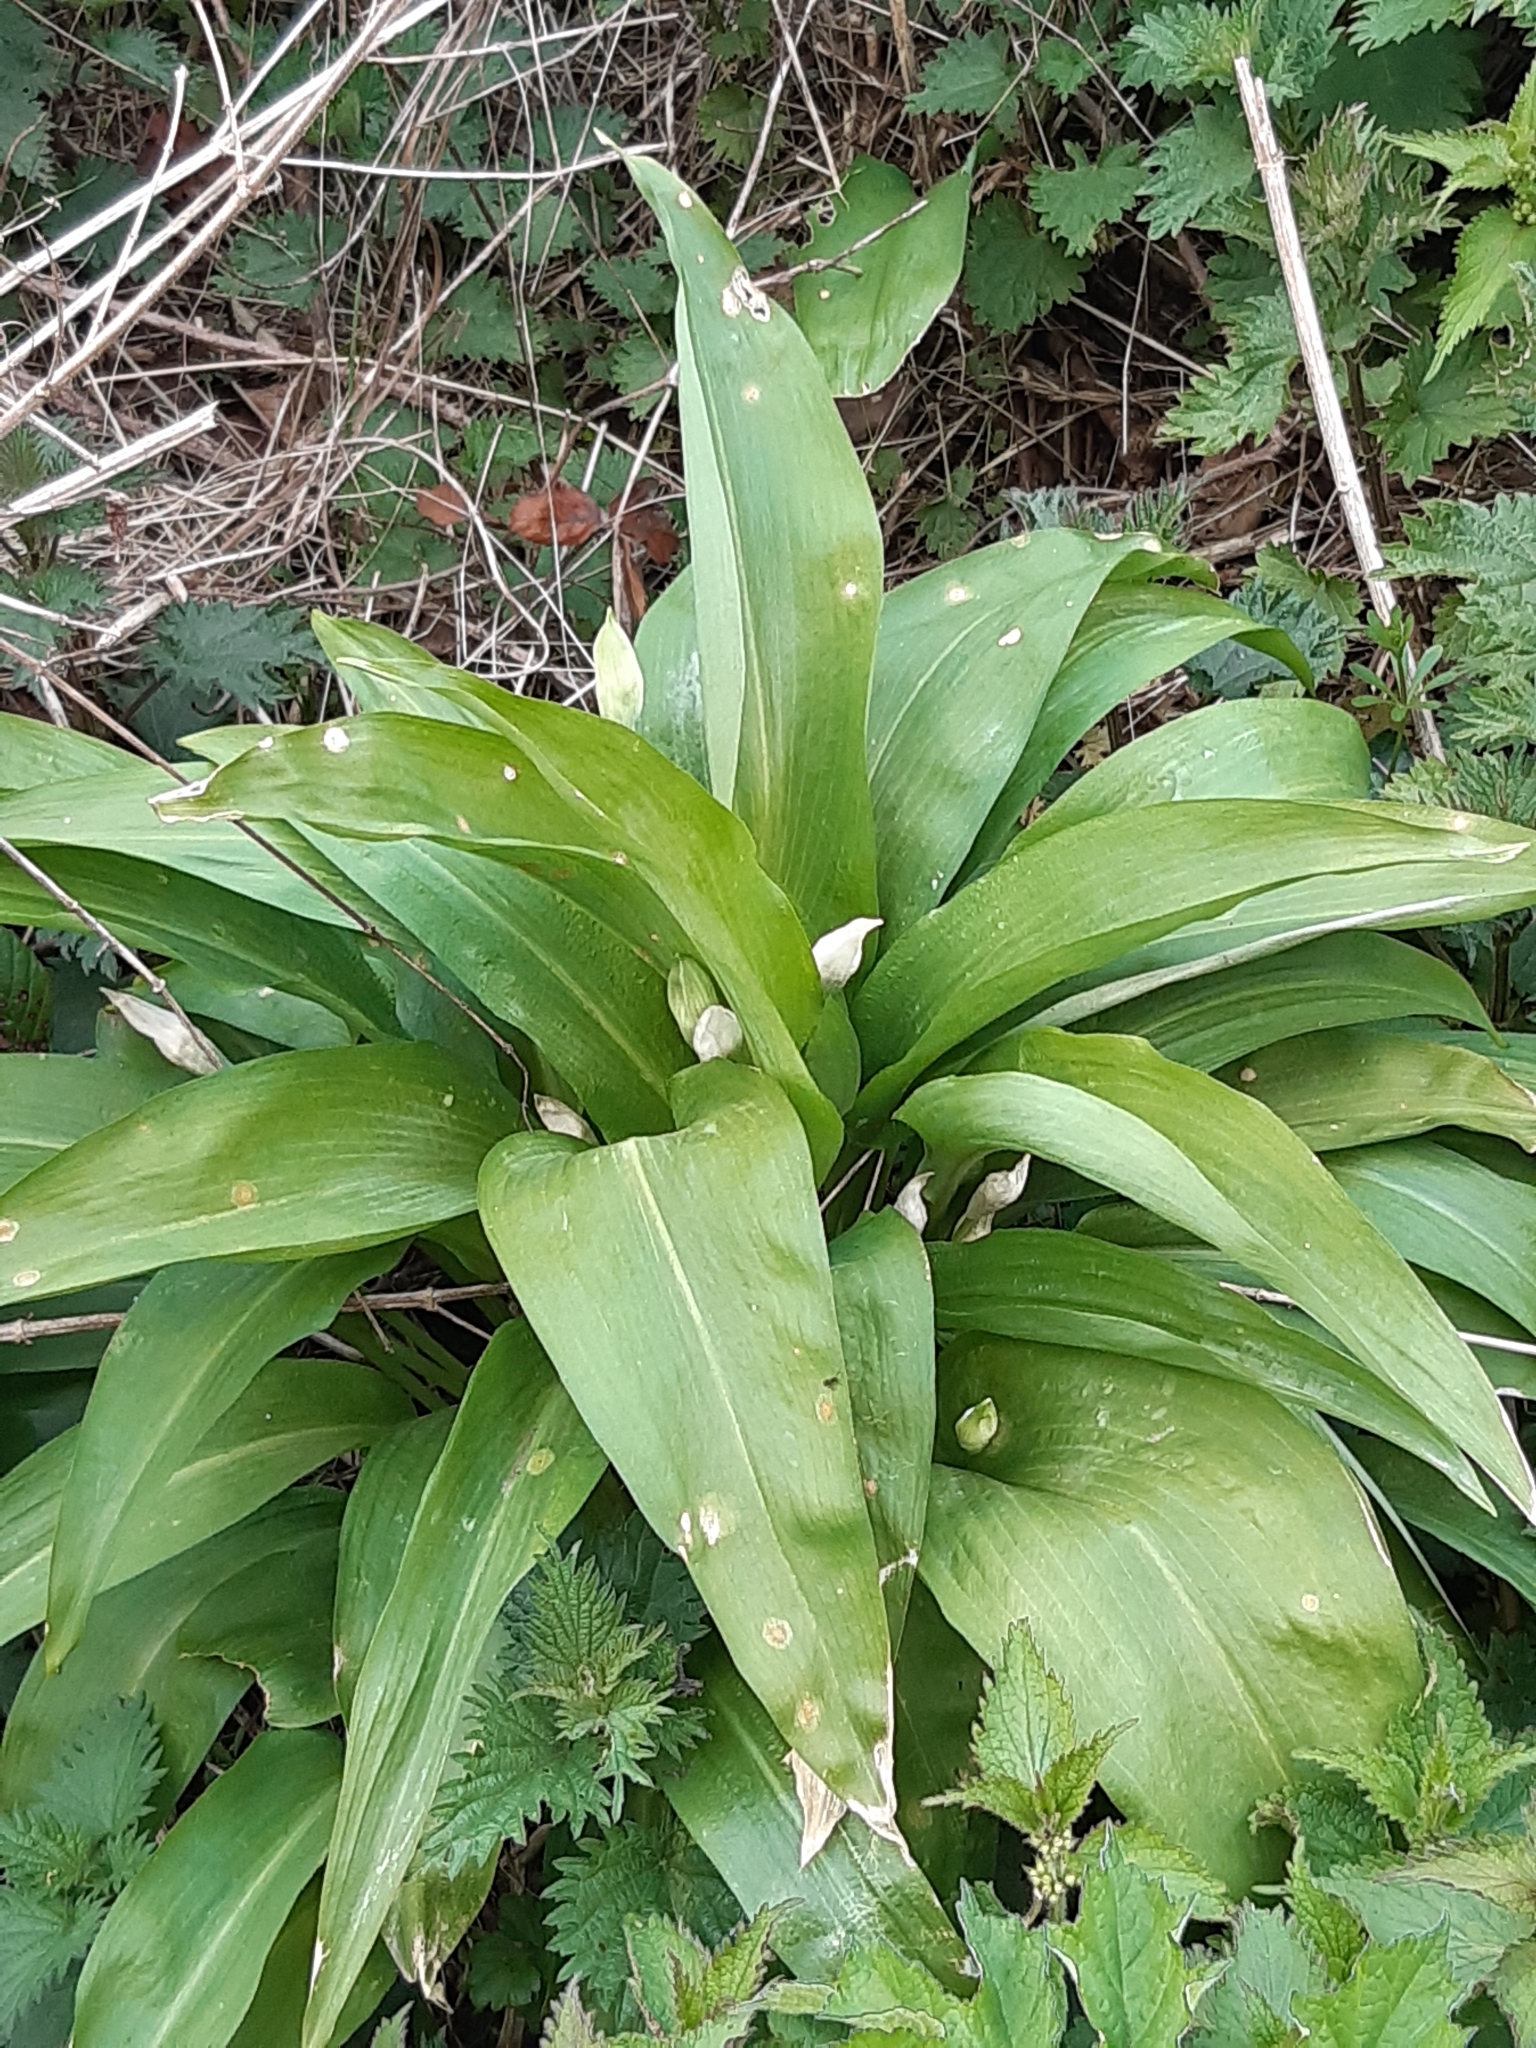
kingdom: Plantae
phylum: Tracheophyta
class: Liliopsida
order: Asparagales
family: Amaryllidaceae
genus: Allium
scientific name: Allium ursinum
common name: Ramsons
